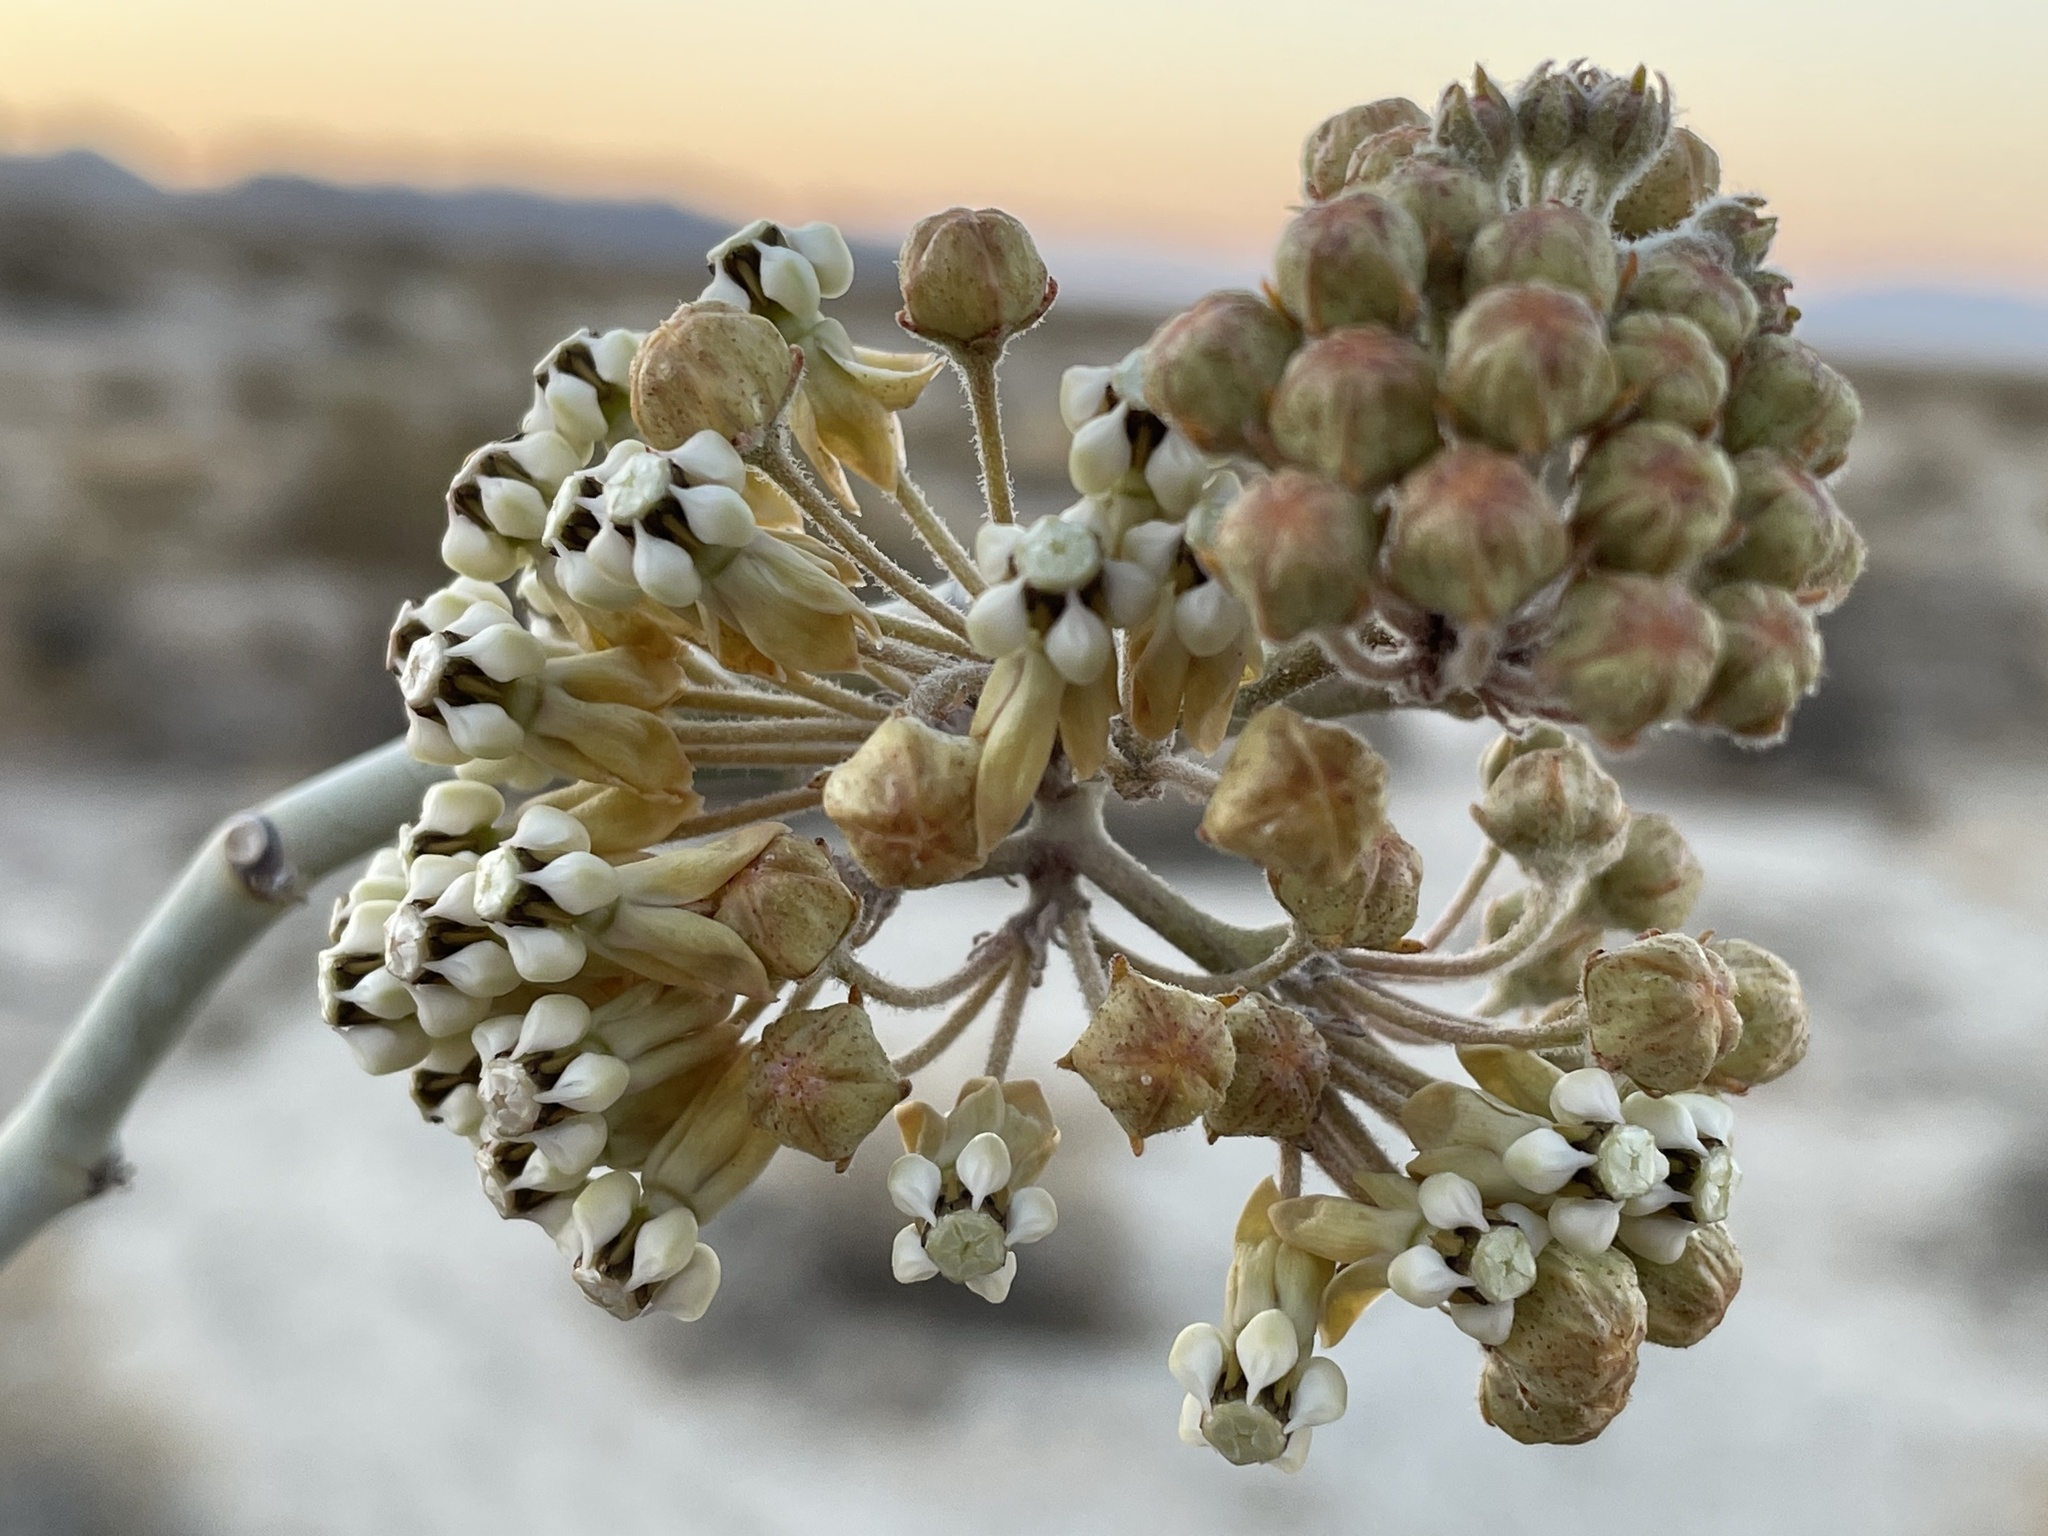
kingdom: Plantae
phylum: Tracheophyta
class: Magnoliopsida
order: Gentianales
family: Apocynaceae
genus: Asclepias
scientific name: Asclepias albicans
